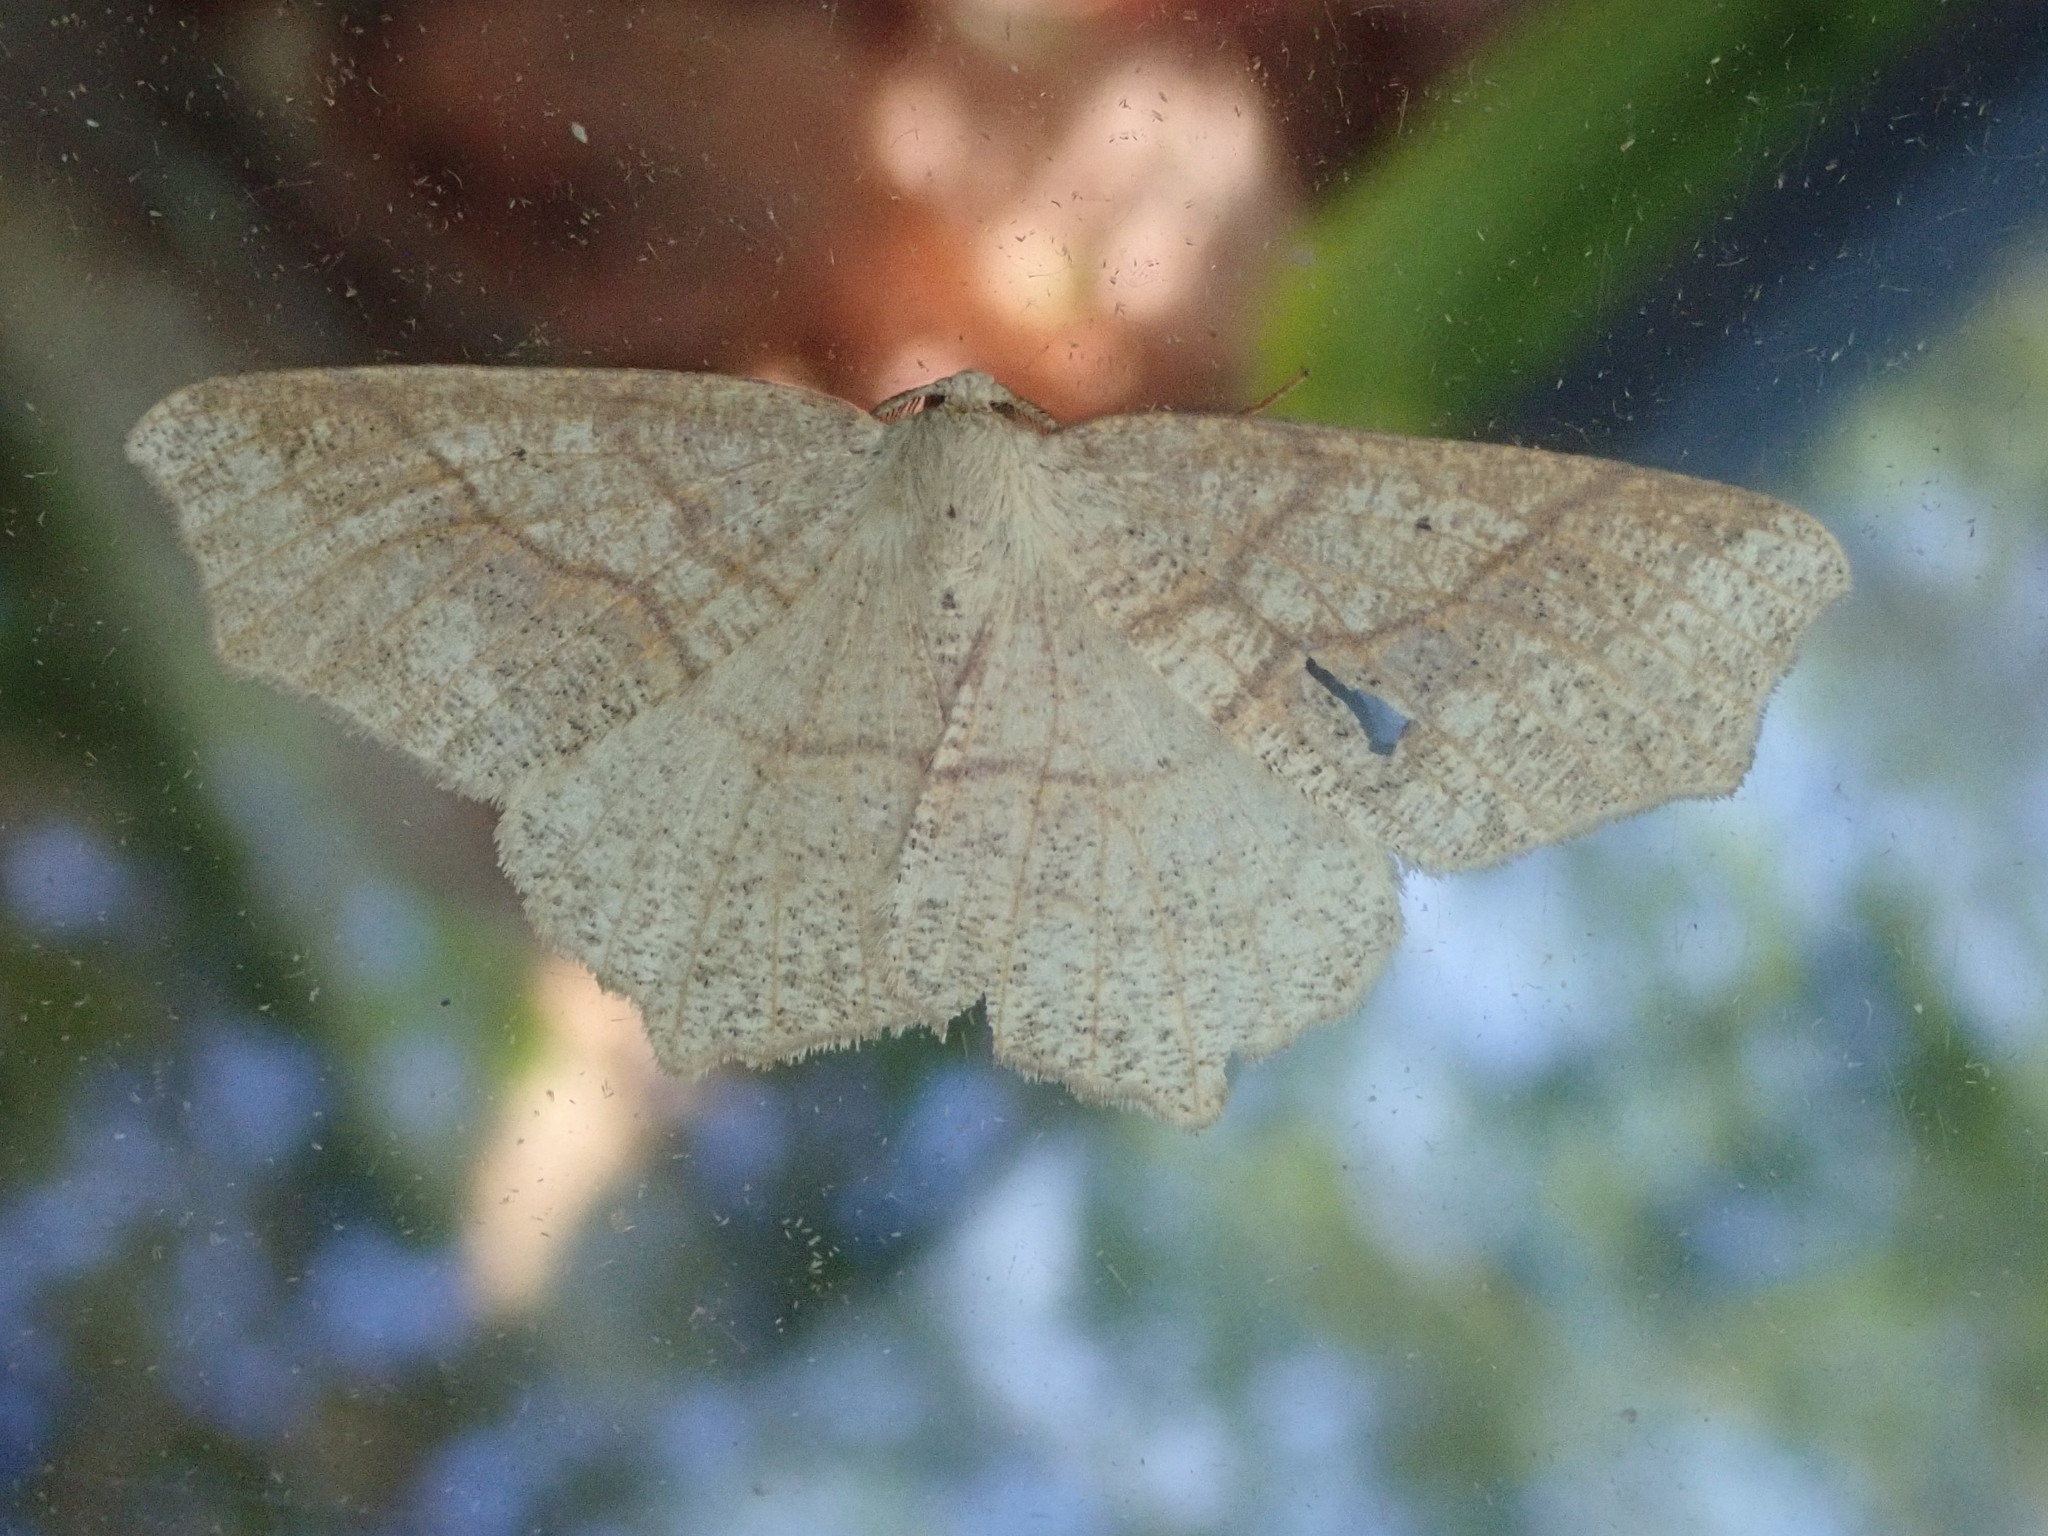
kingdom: Animalia
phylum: Arthropoda
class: Insecta
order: Lepidoptera
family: Geometridae
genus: Besma
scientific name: Besma quercivoraria
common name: Oak besma
